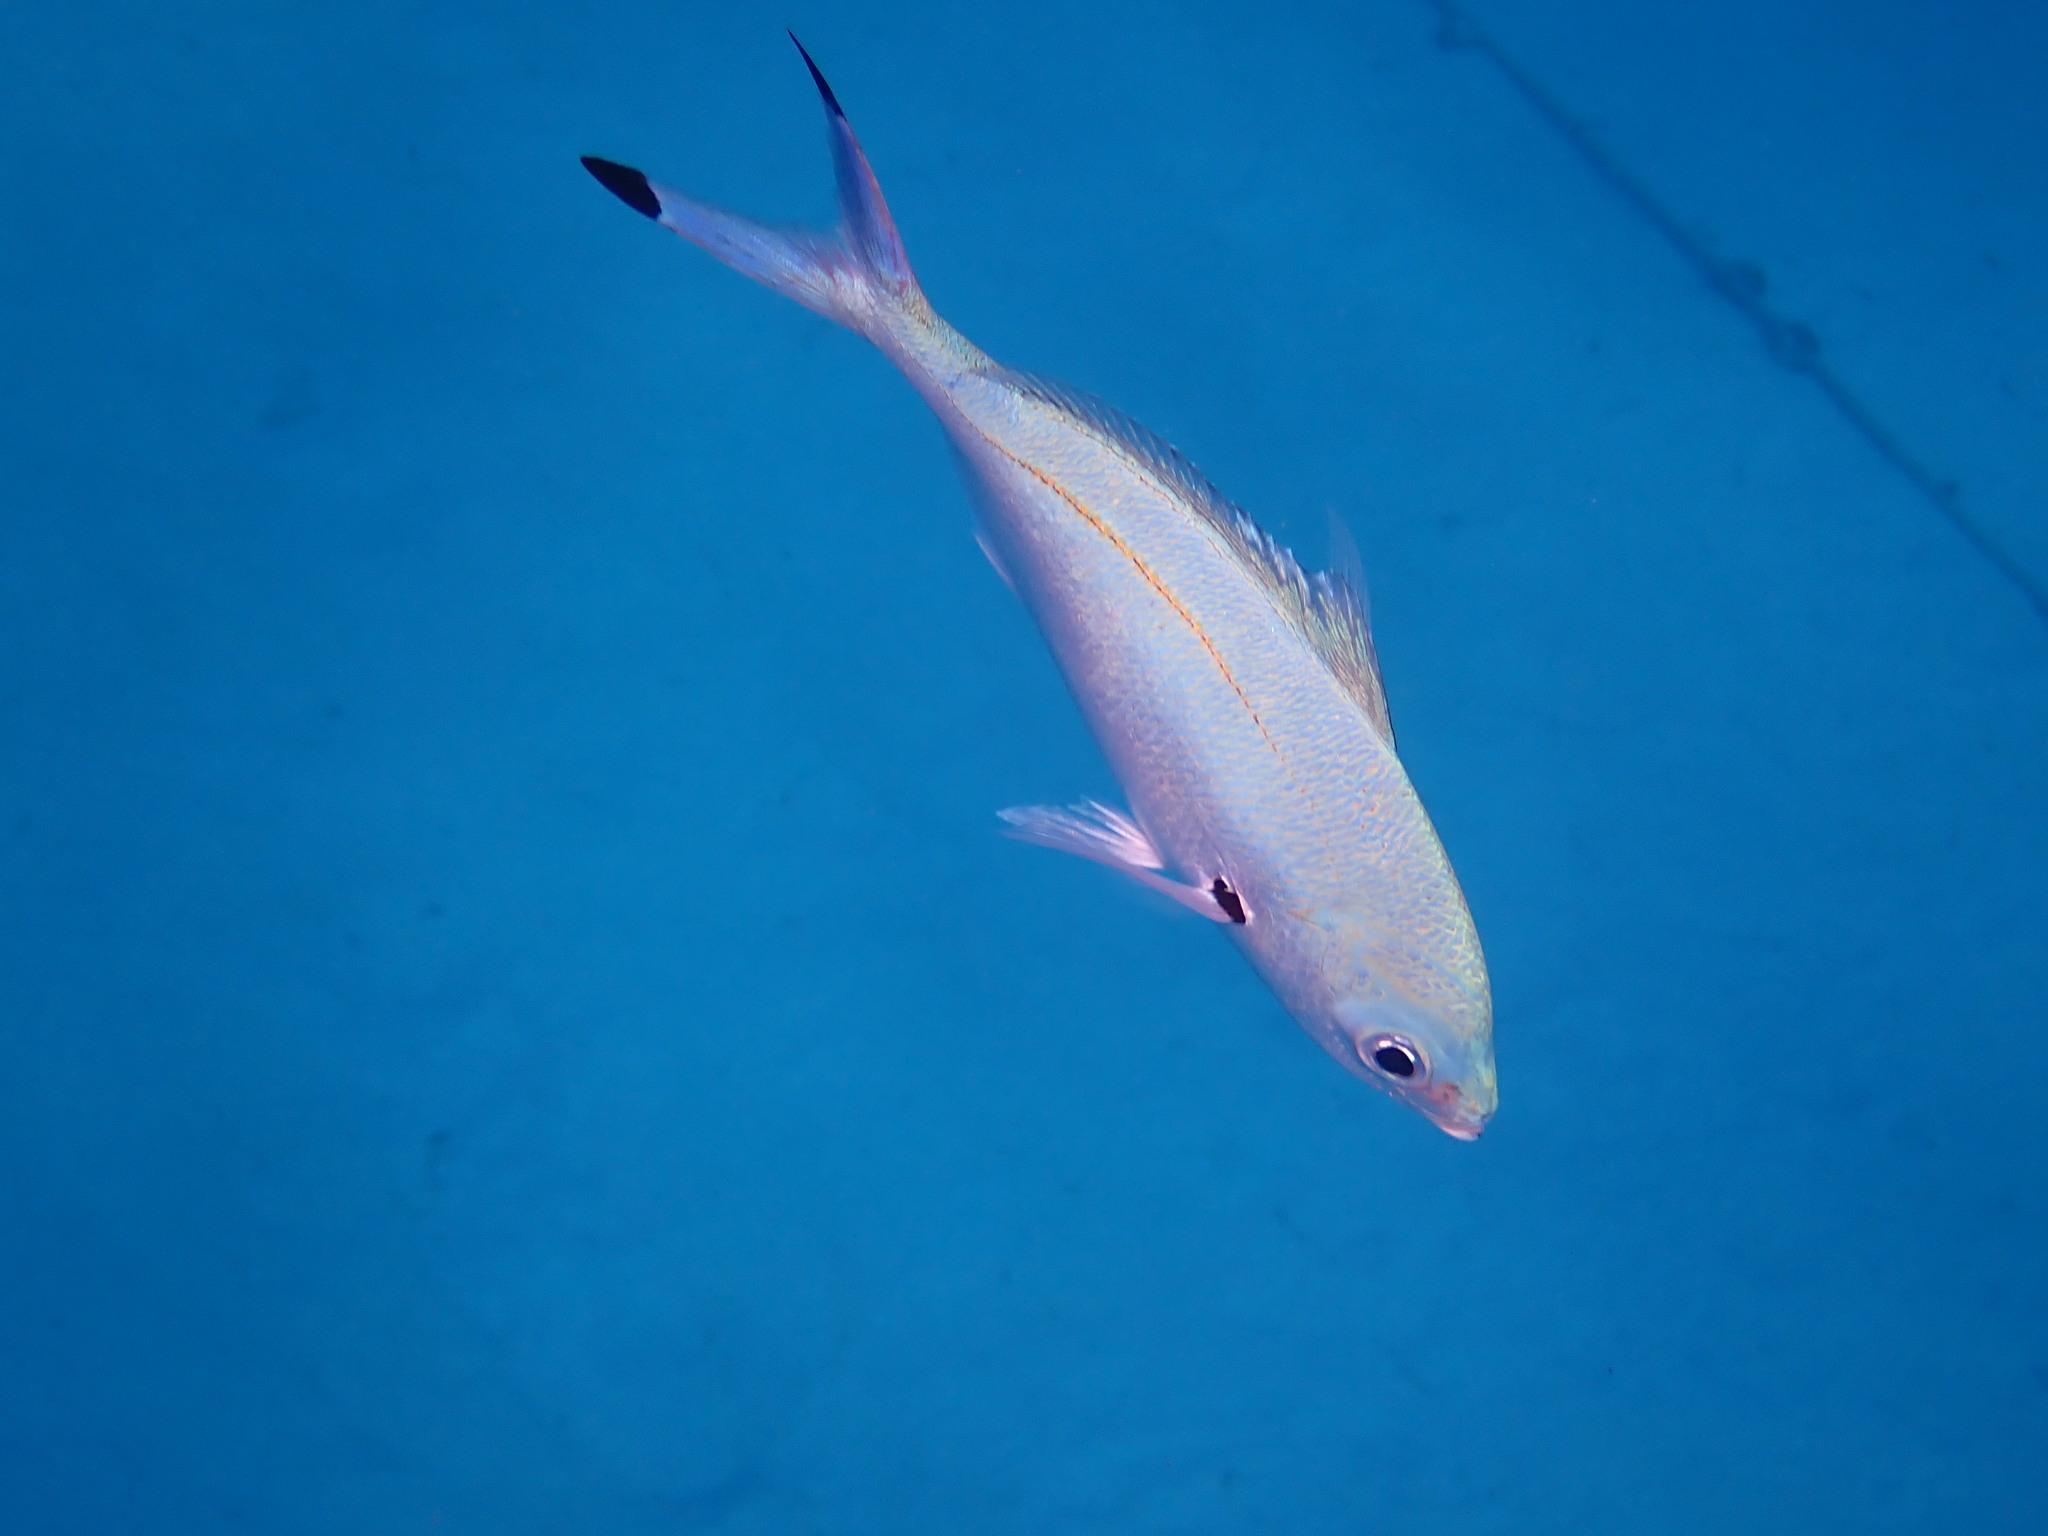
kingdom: Animalia
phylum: Chordata
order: Perciformes
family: Caesionidae
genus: Caesio
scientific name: Caesio lunaris
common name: Blue fusilier
